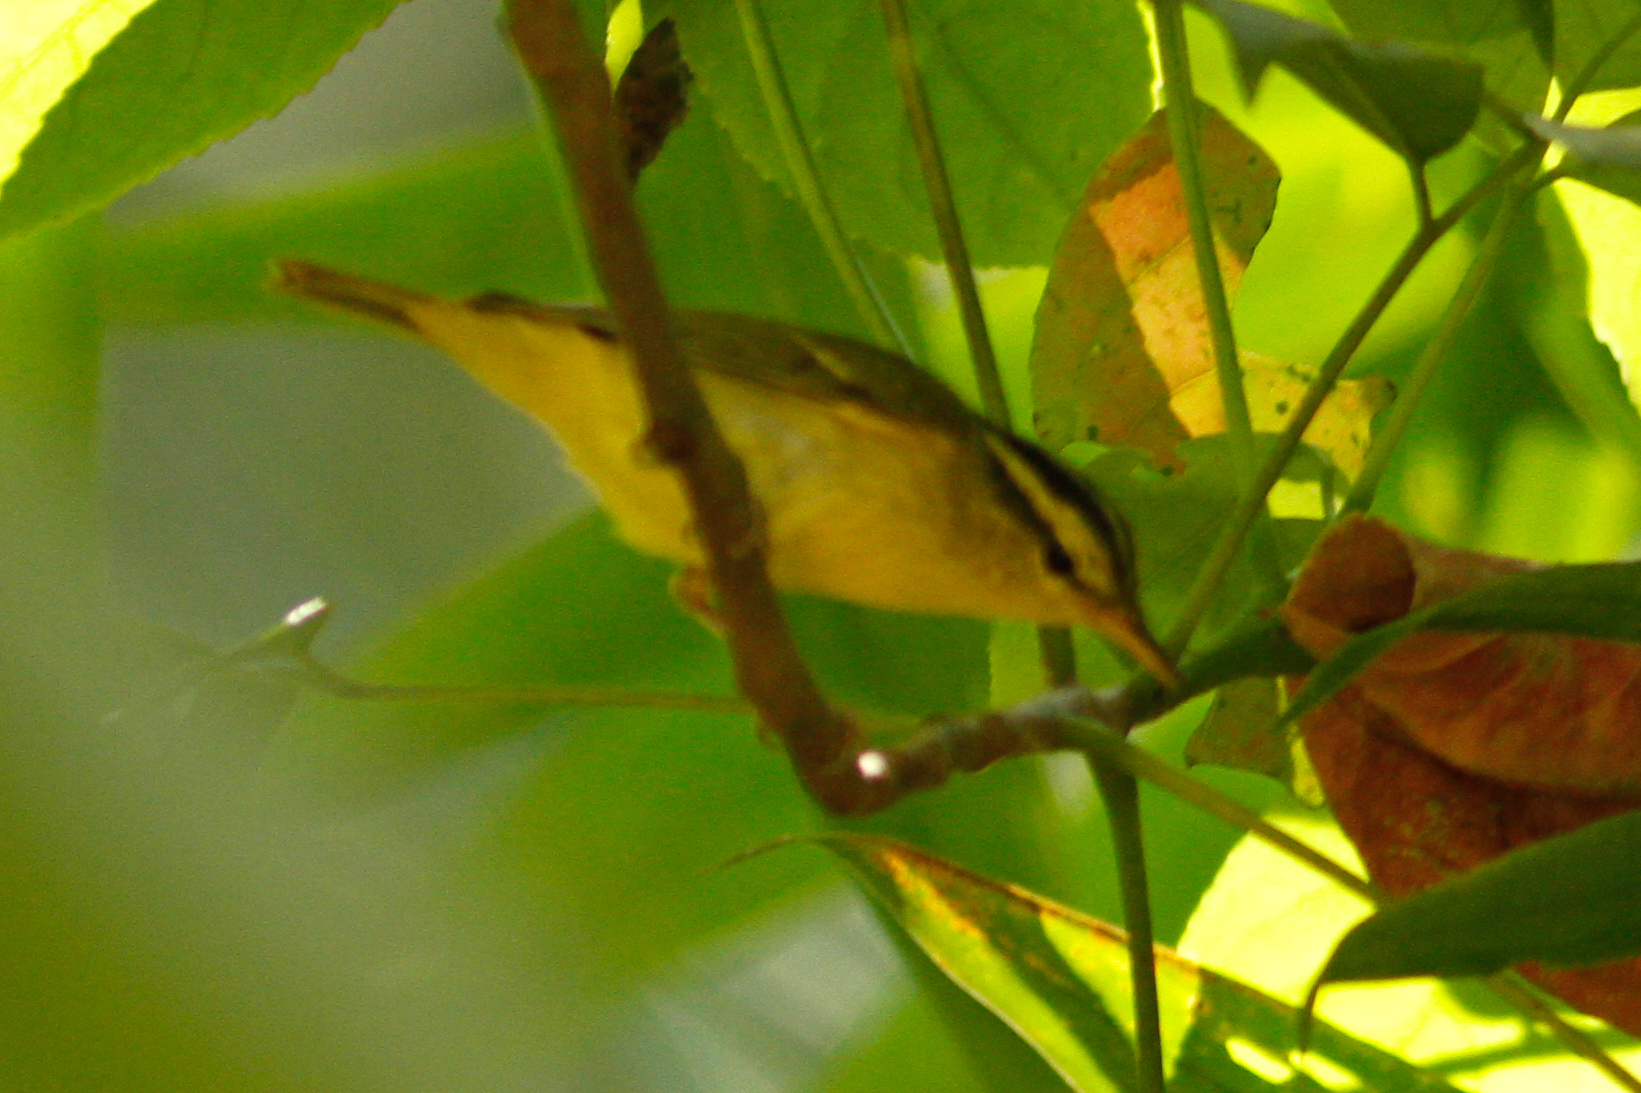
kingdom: Animalia
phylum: Chordata
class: Aves
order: Passeriformes
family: Phylloscopidae
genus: Phylloscopus
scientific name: Phylloscopus ricketti
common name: Sulphur-breasted warbler
